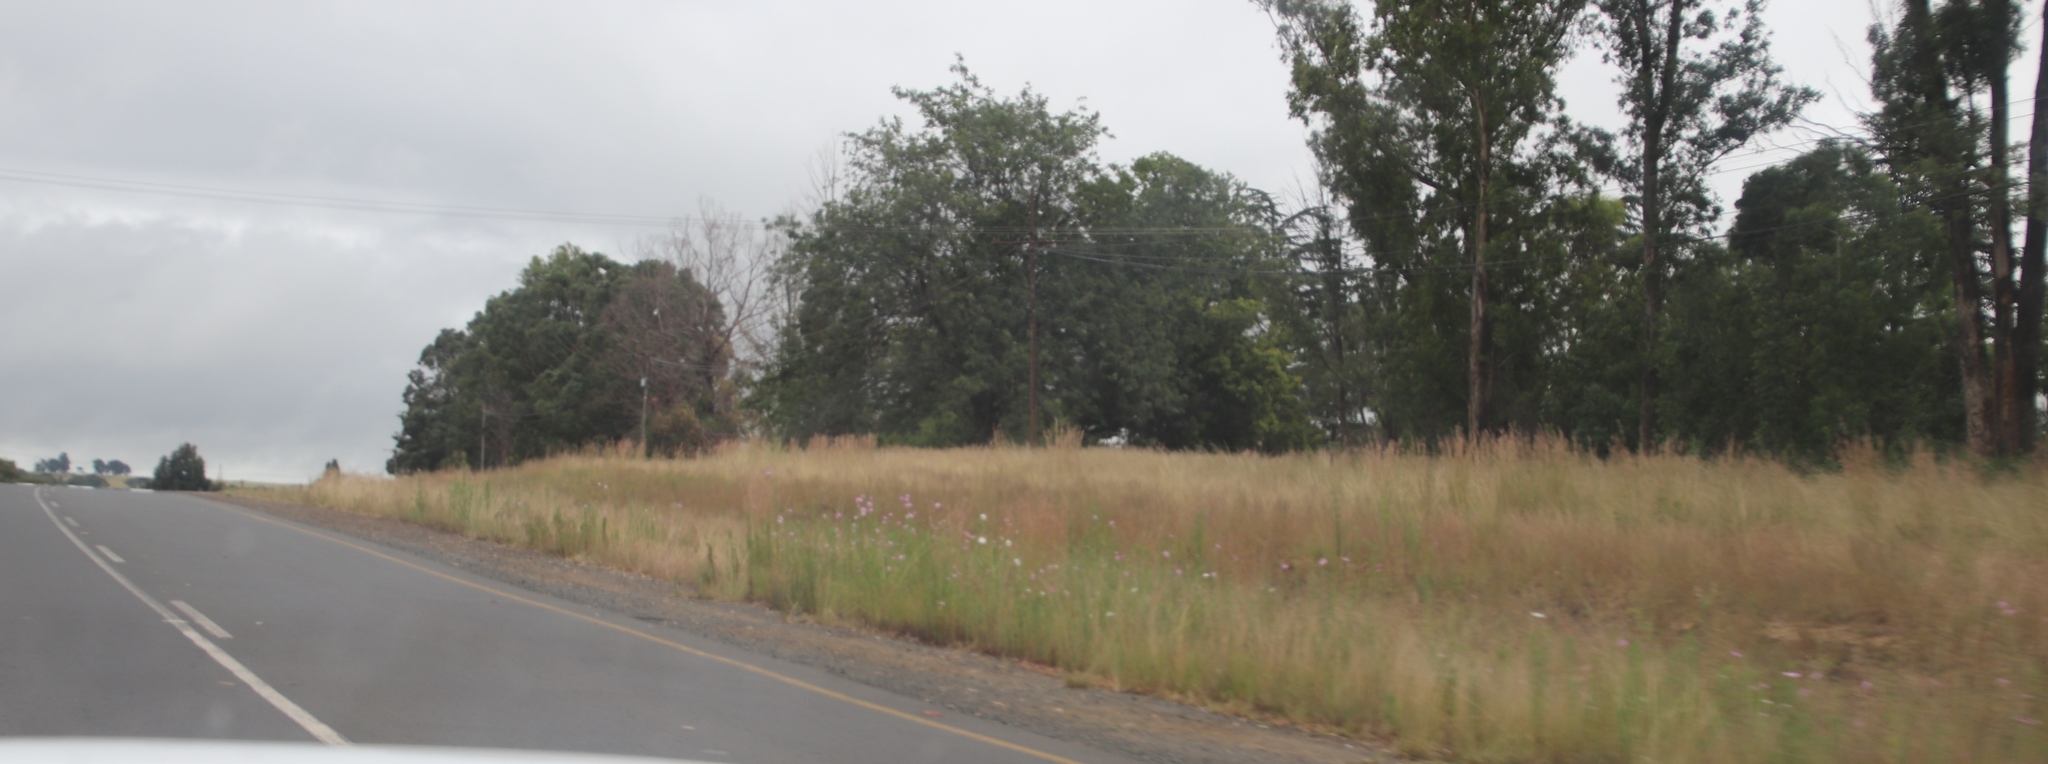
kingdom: Plantae
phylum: Tracheophyta
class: Magnoliopsida
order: Asterales
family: Asteraceae
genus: Cosmos
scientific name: Cosmos bipinnatus
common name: Garden cosmos
